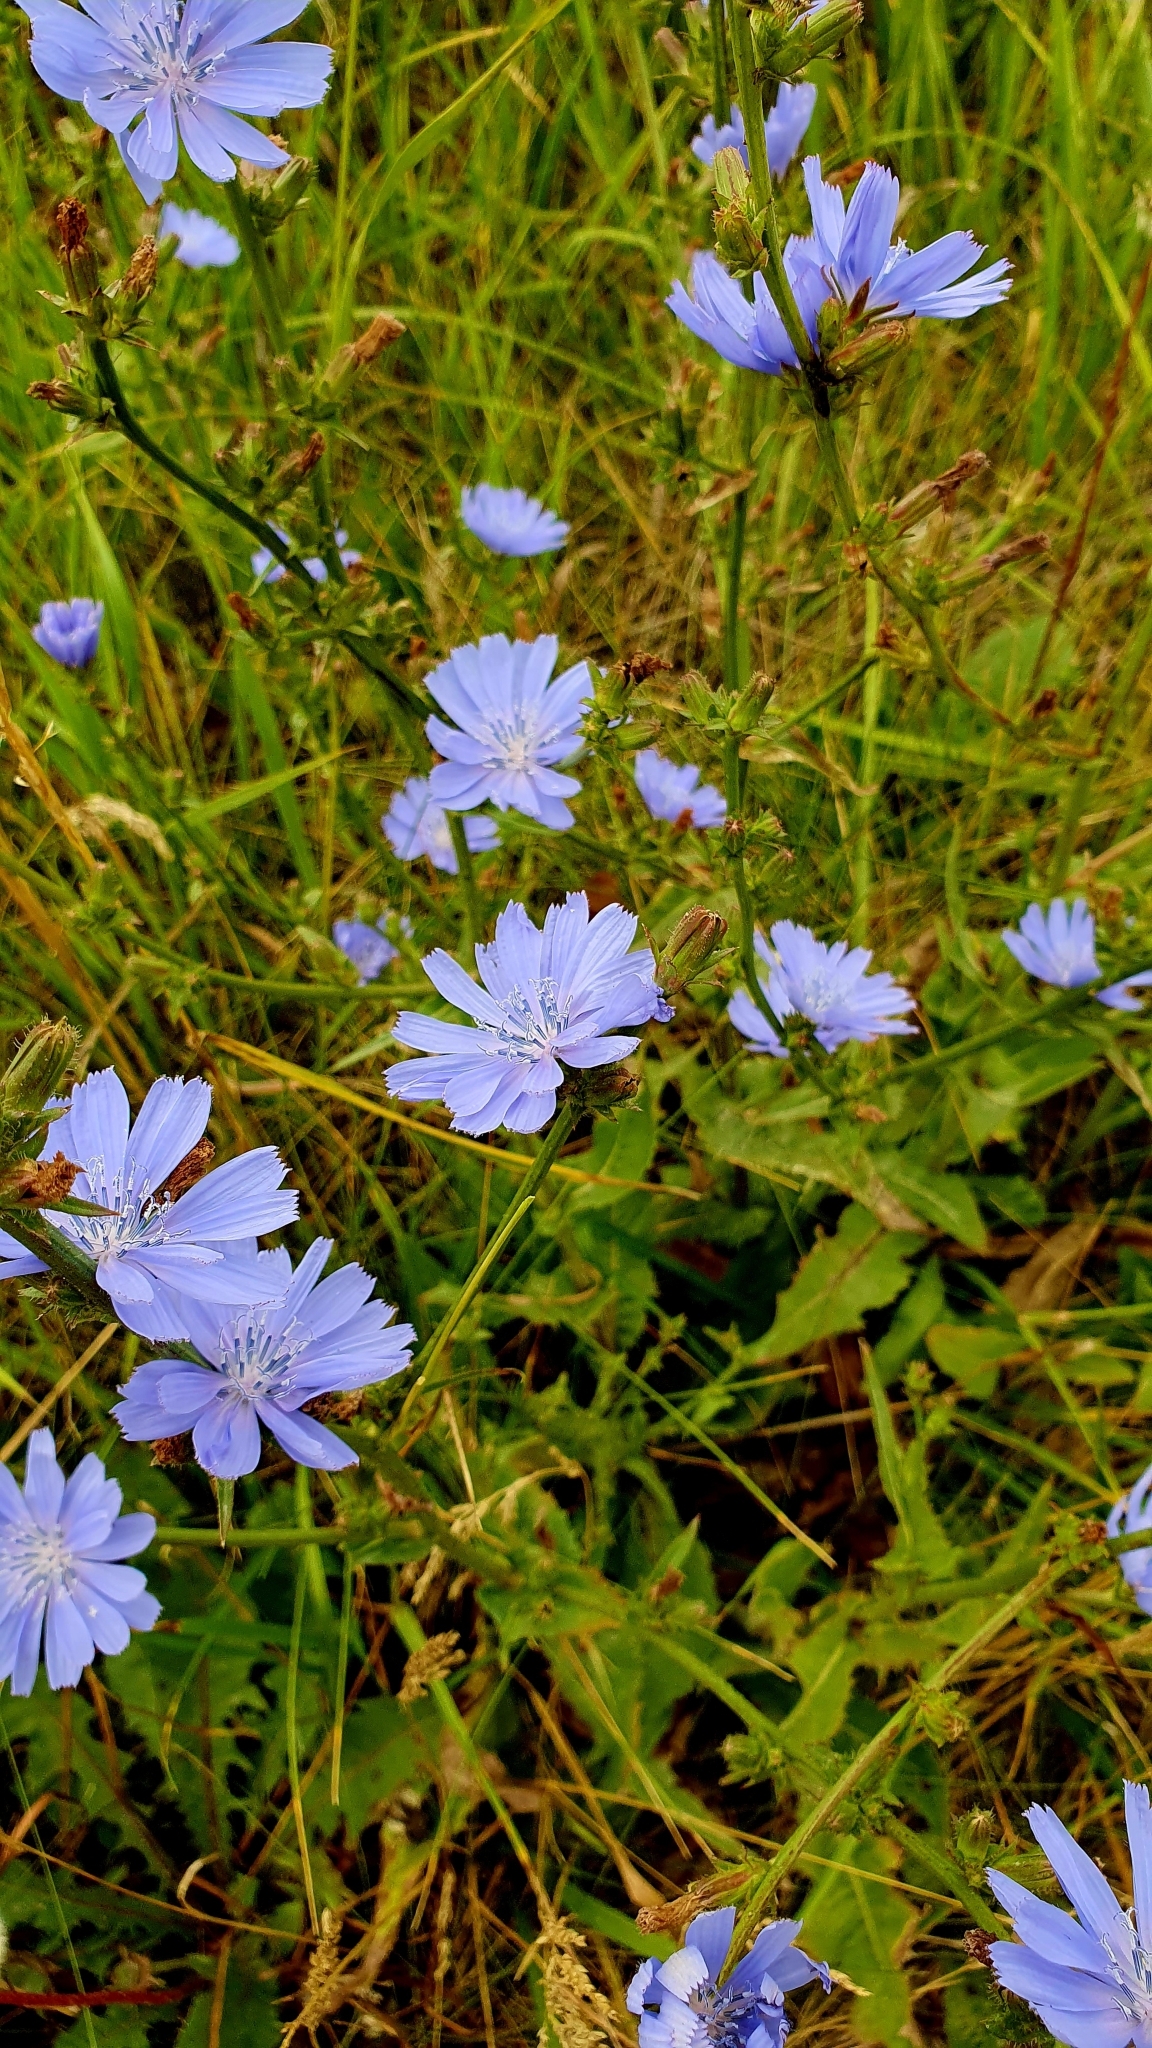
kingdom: Plantae
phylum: Tracheophyta
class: Magnoliopsida
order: Asterales
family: Asteraceae
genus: Cichorium
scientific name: Cichorium intybus
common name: Chicory
